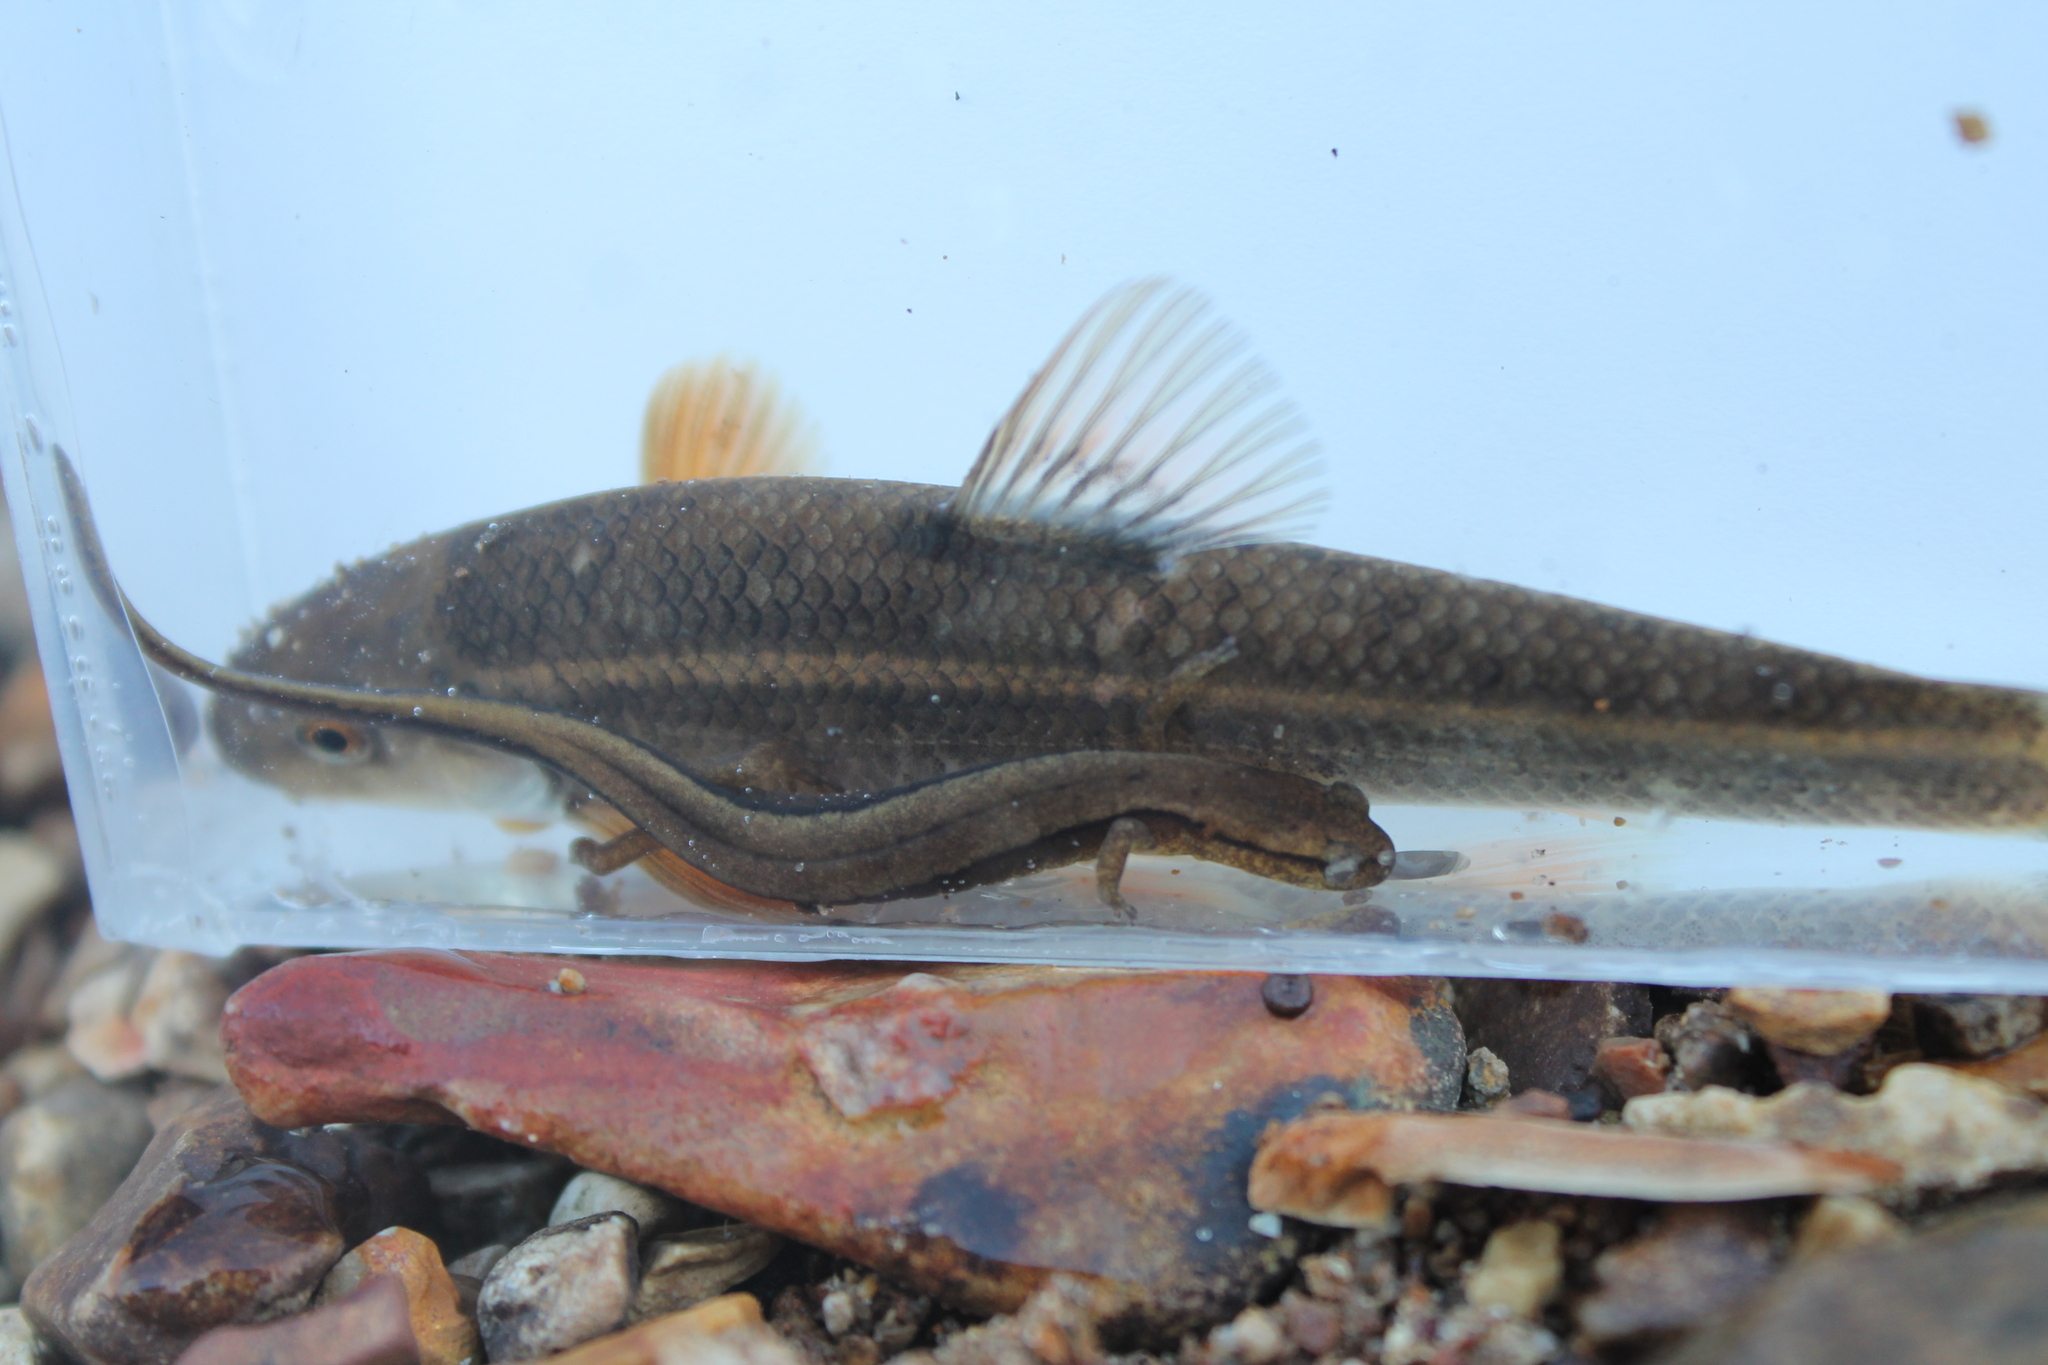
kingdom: Animalia
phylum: Chordata
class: Amphibia
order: Caudata
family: Plethodontidae
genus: Eurycea
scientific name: Eurycea cirrigera
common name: Southern two-lined salamander
